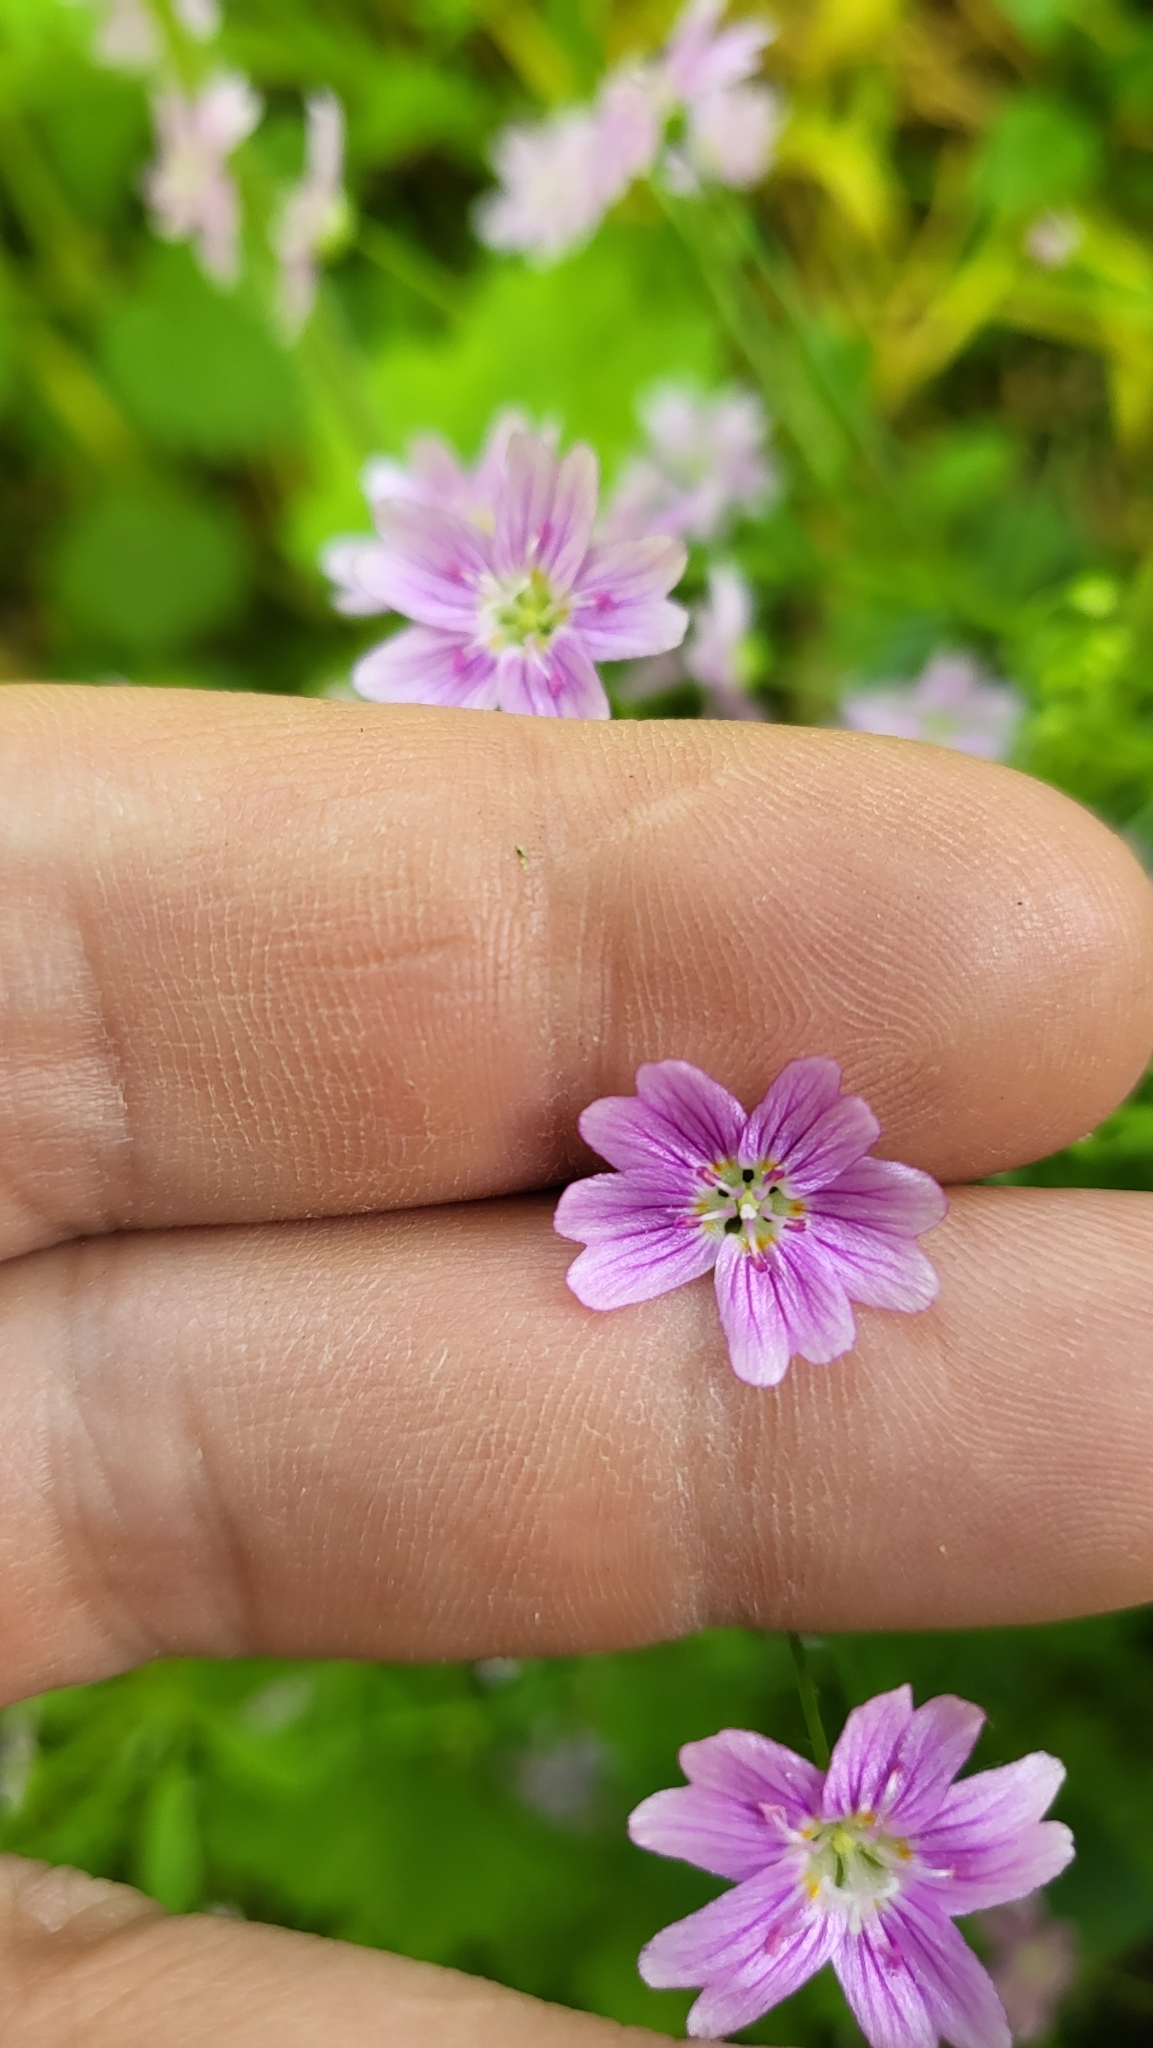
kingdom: Plantae
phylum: Tracheophyta
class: Magnoliopsida
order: Caryophyllales
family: Montiaceae
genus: Claytonia
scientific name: Claytonia sibirica
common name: Pink purslane
